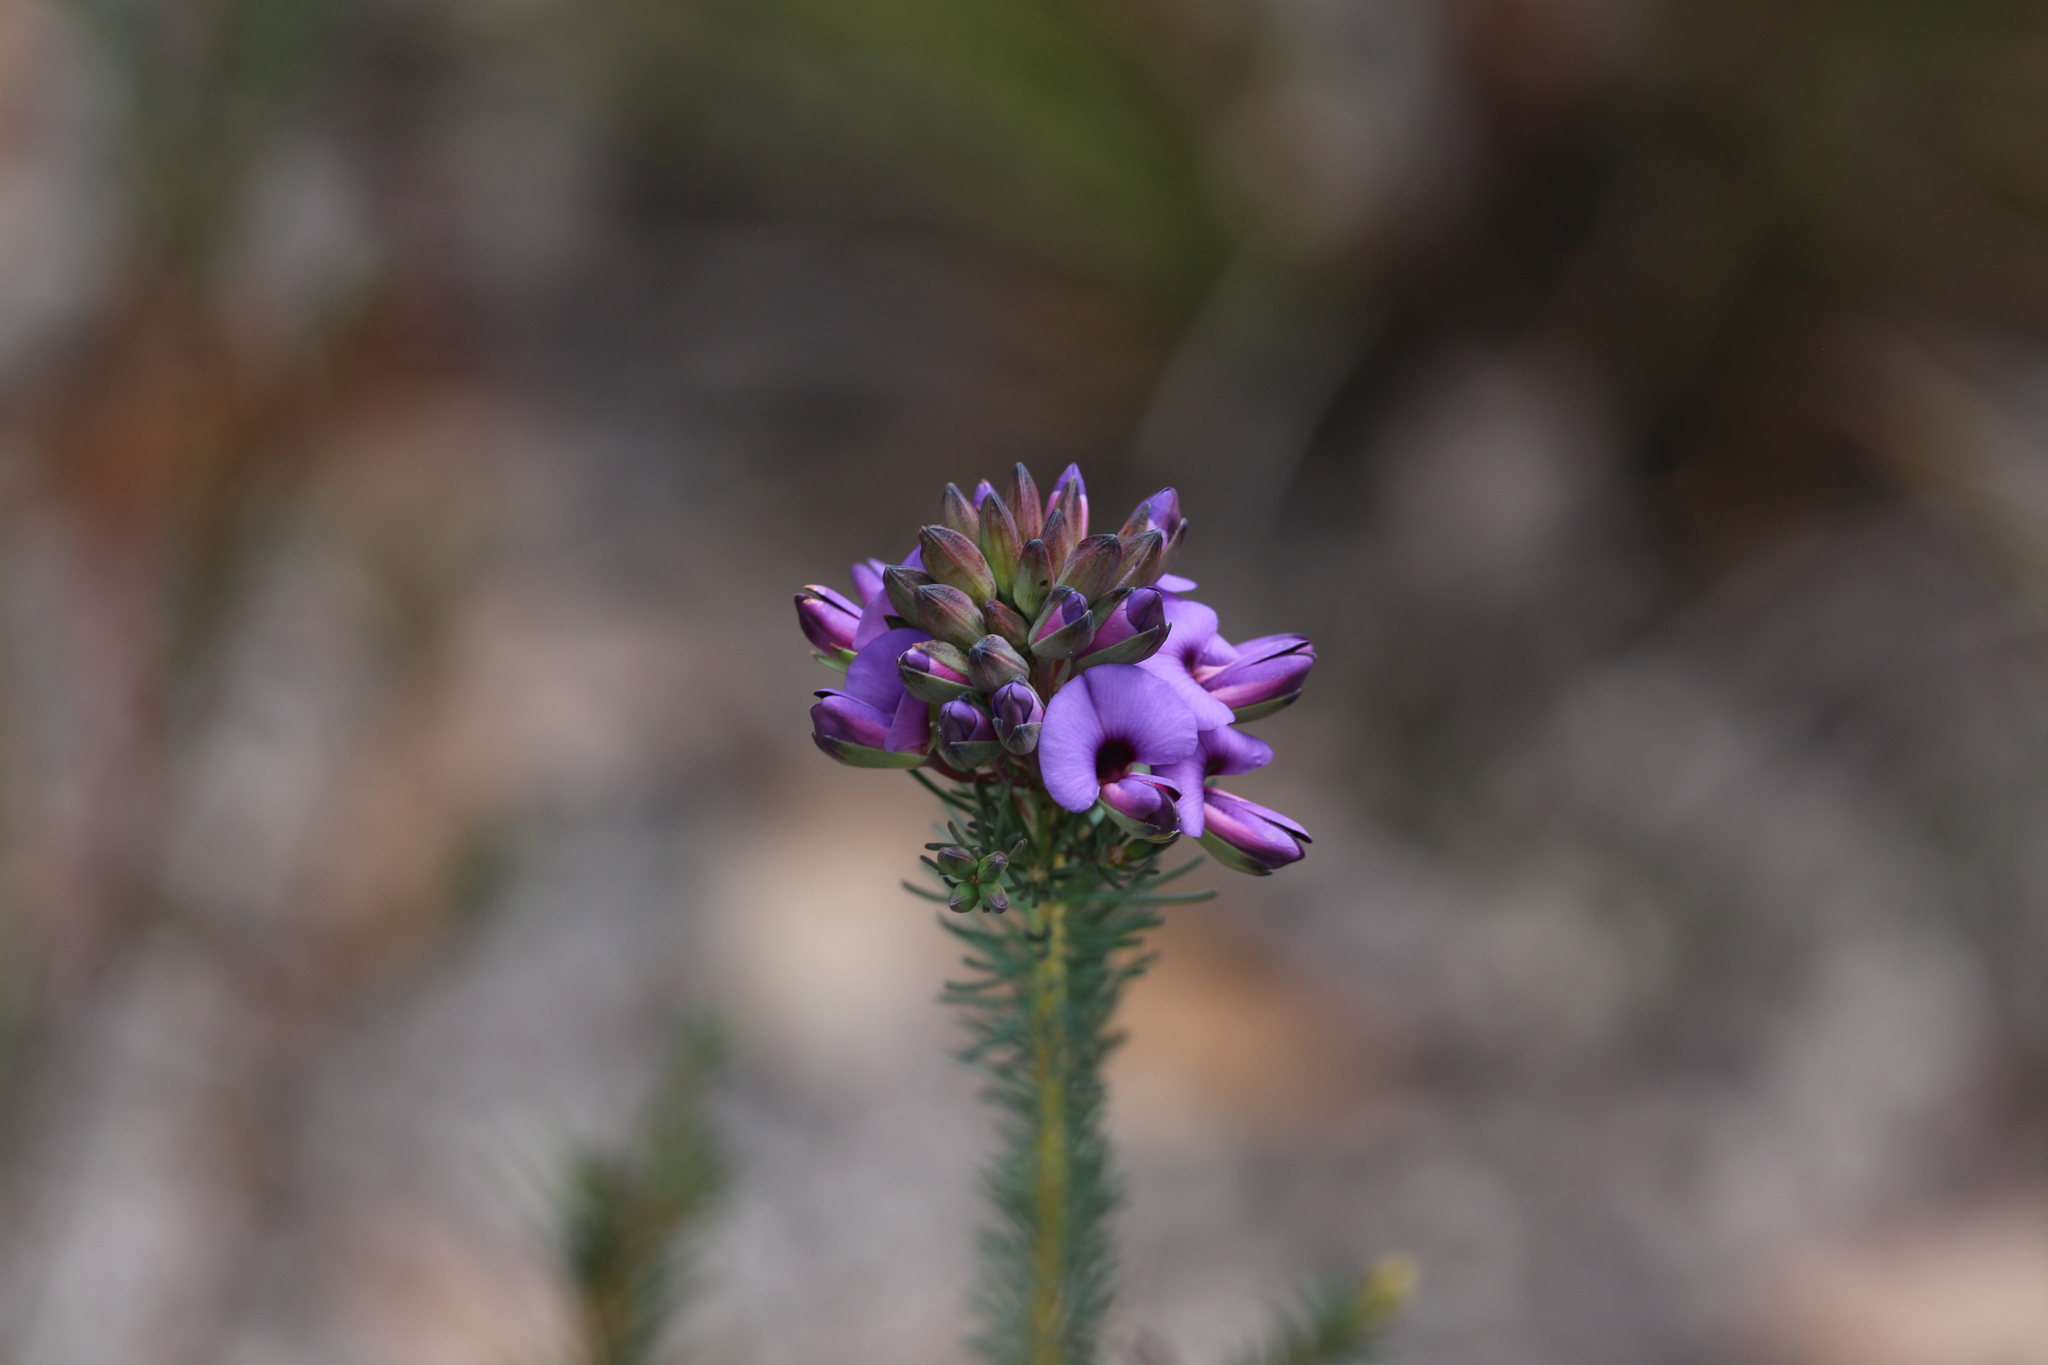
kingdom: Plantae
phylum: Tracheophyta
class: Magnoliopsida
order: Fabales
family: Fabaceae
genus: Gompholobium
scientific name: Gompholobium confertum
